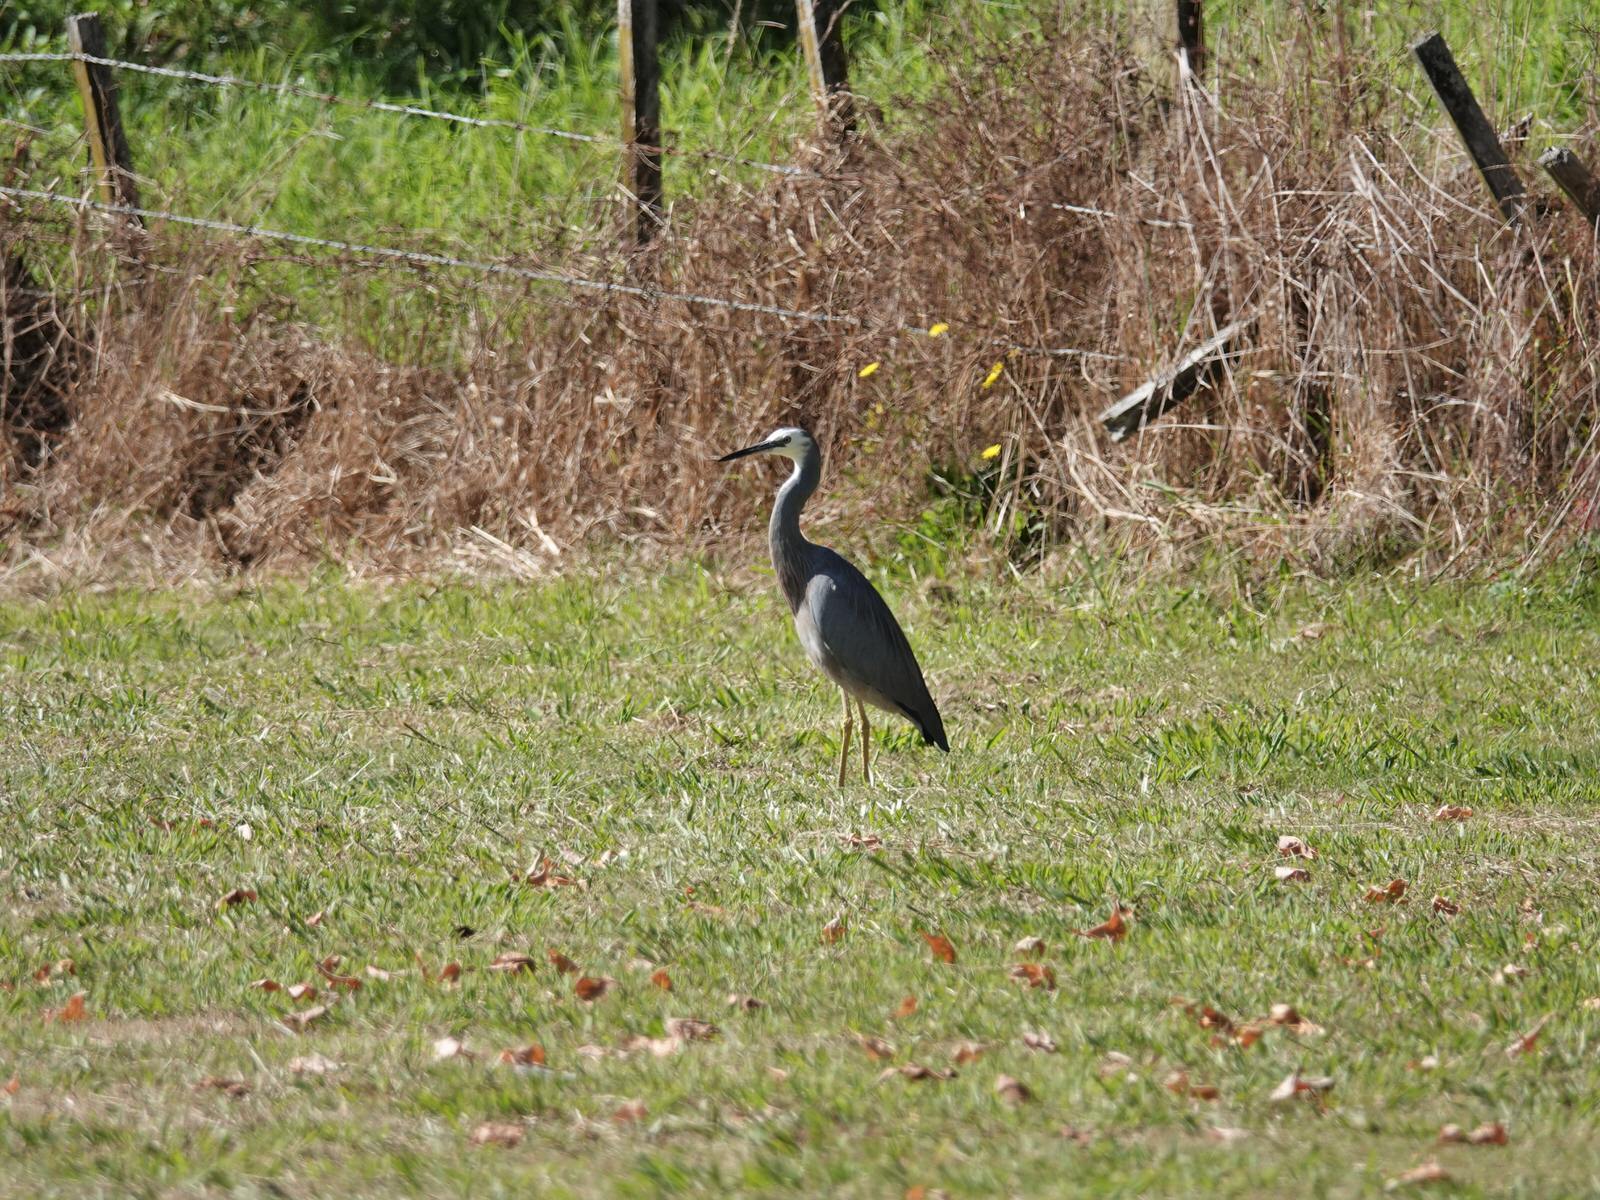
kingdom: Animalia
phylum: Chordata
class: Aves
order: Pelecaniformes
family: Ardeidae
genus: Egretta
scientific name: Egretta novaehollandiae
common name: White-faced heron
